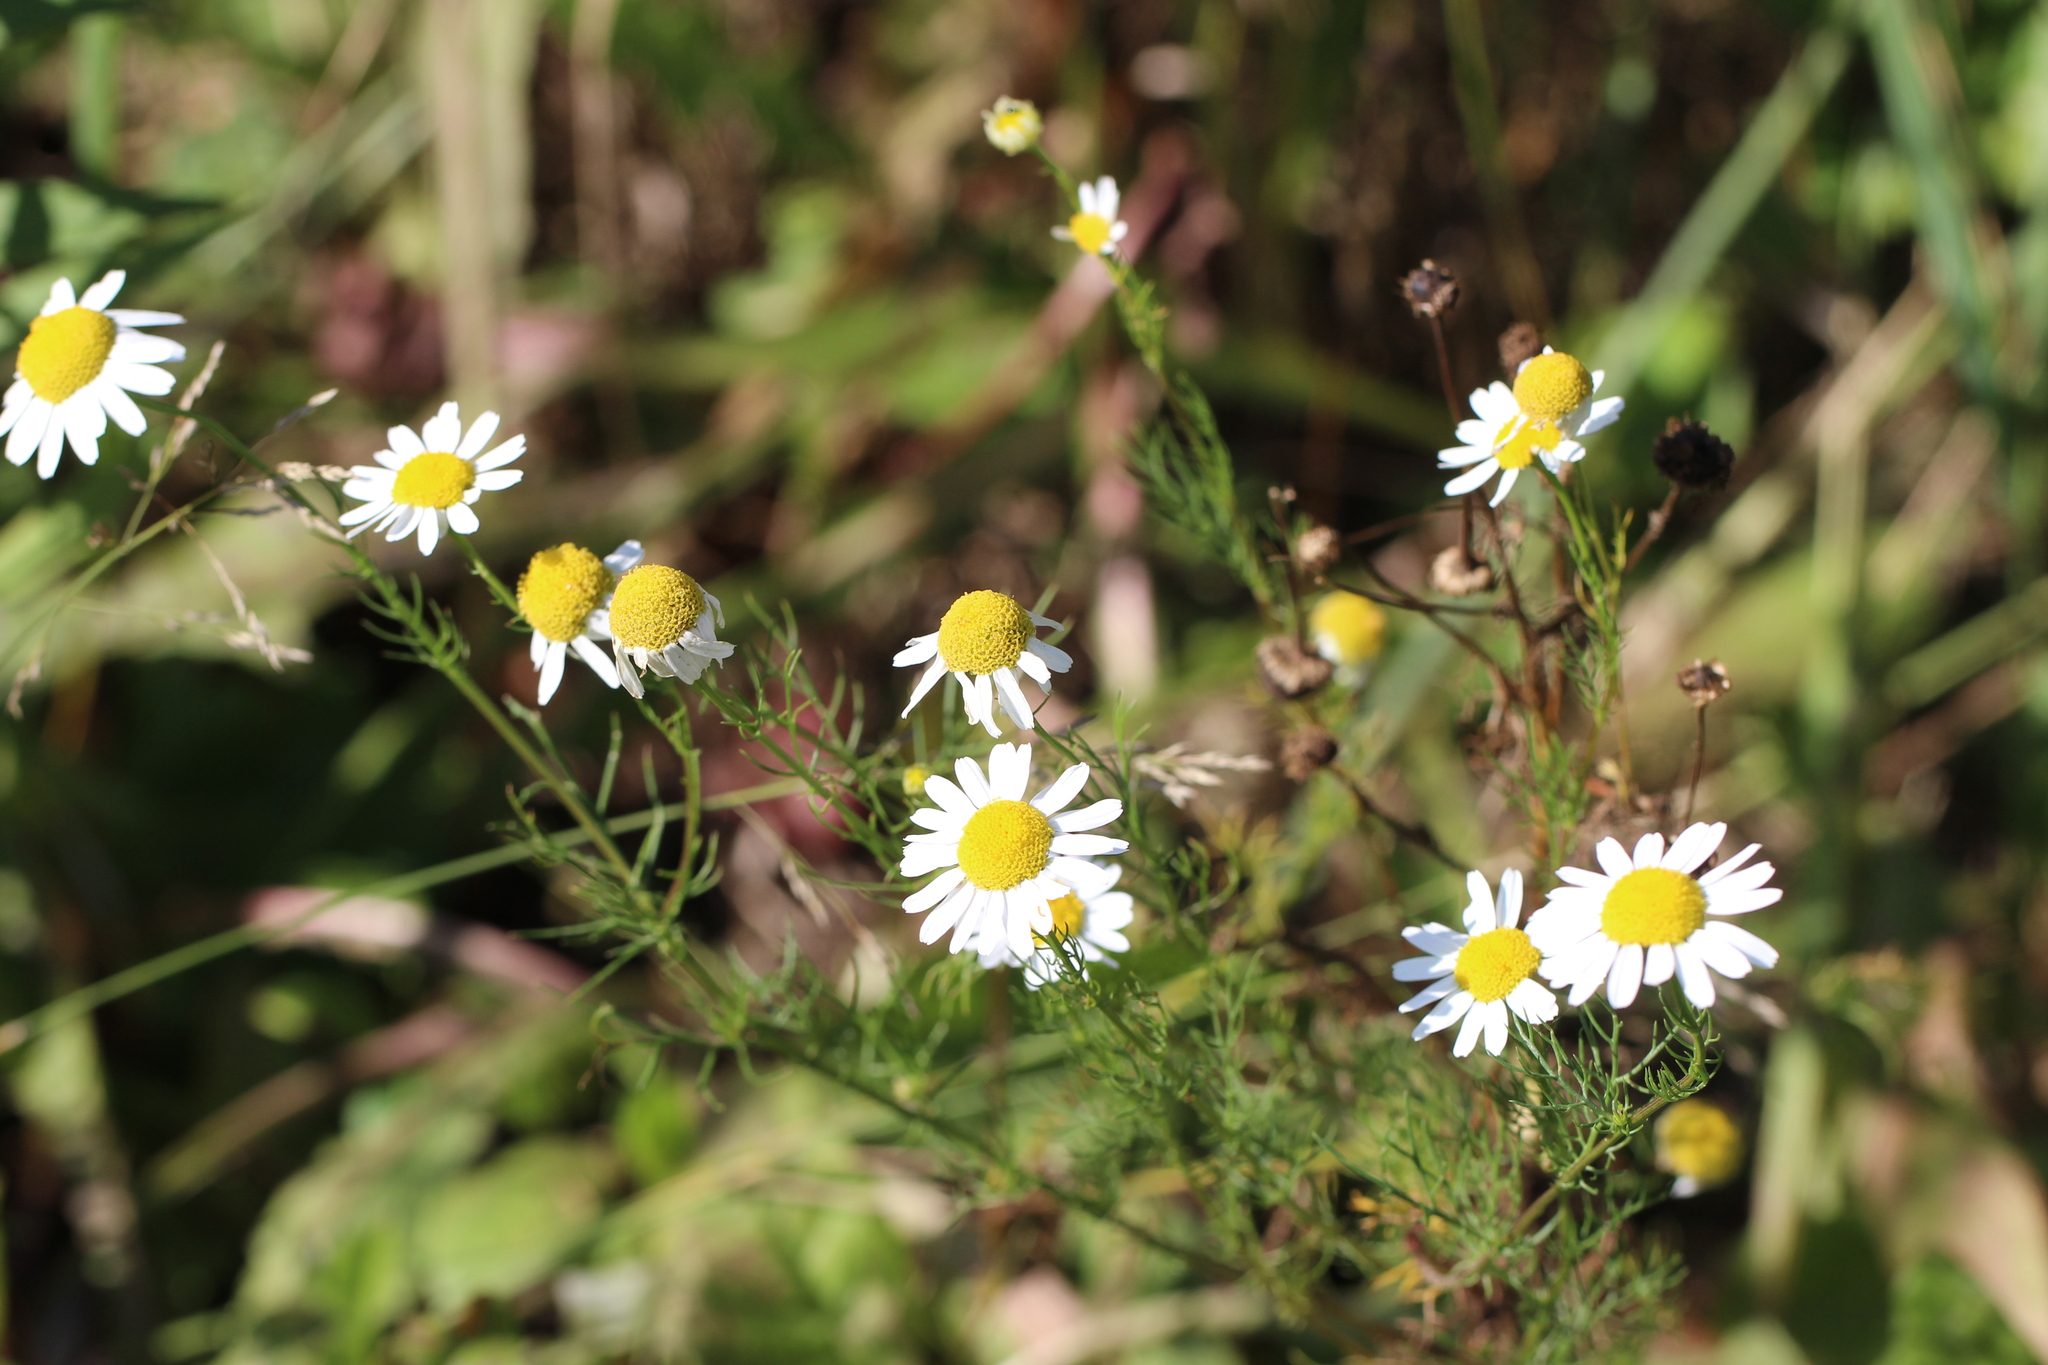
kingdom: Plantae
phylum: Tracheophyta
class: Magnoliopsida
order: Asterales
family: Asteraceae
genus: Tripleurospermum
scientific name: Tripleurospermum inodorum
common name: Scentless mayweed
